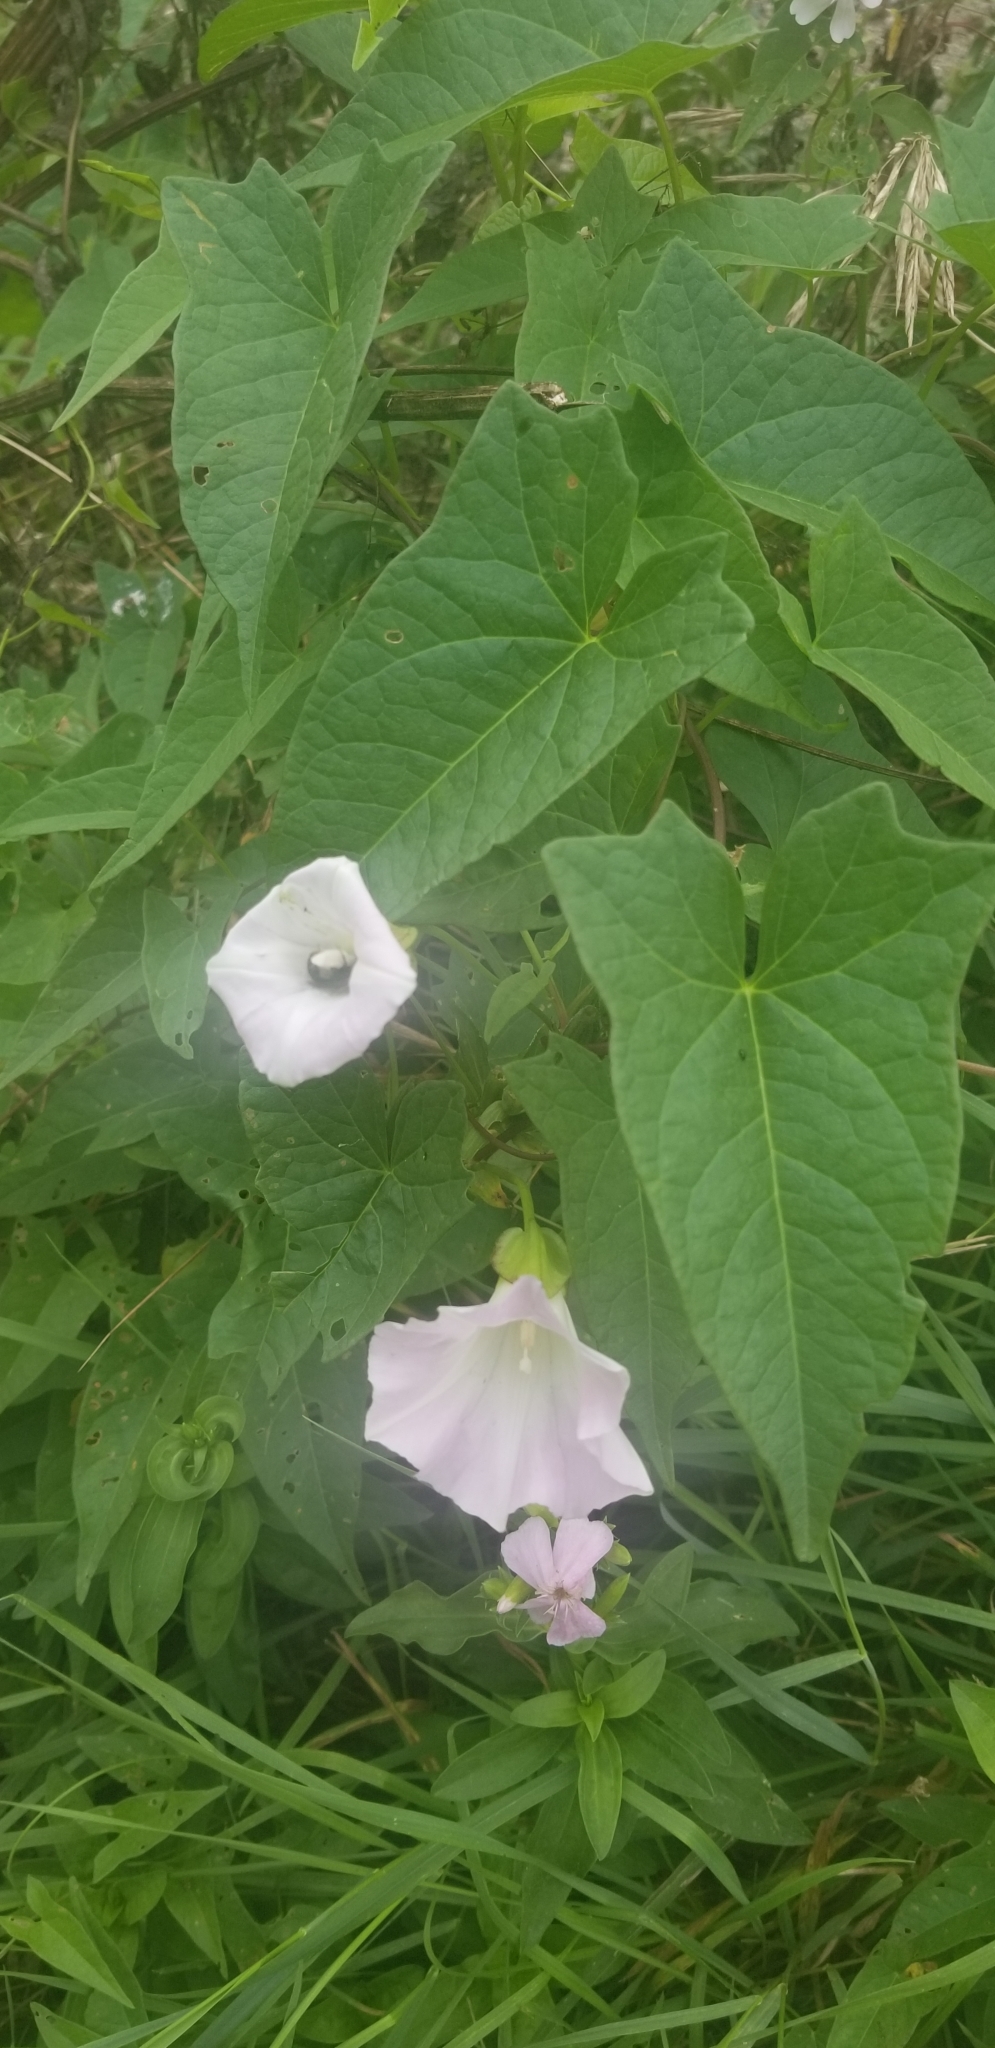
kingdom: Plantae
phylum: Tracheophyta
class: Magnoliopsida
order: Solanales
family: Convolvulaceae
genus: Calystegia
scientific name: Calystegia sepium
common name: Hedge bindweed
